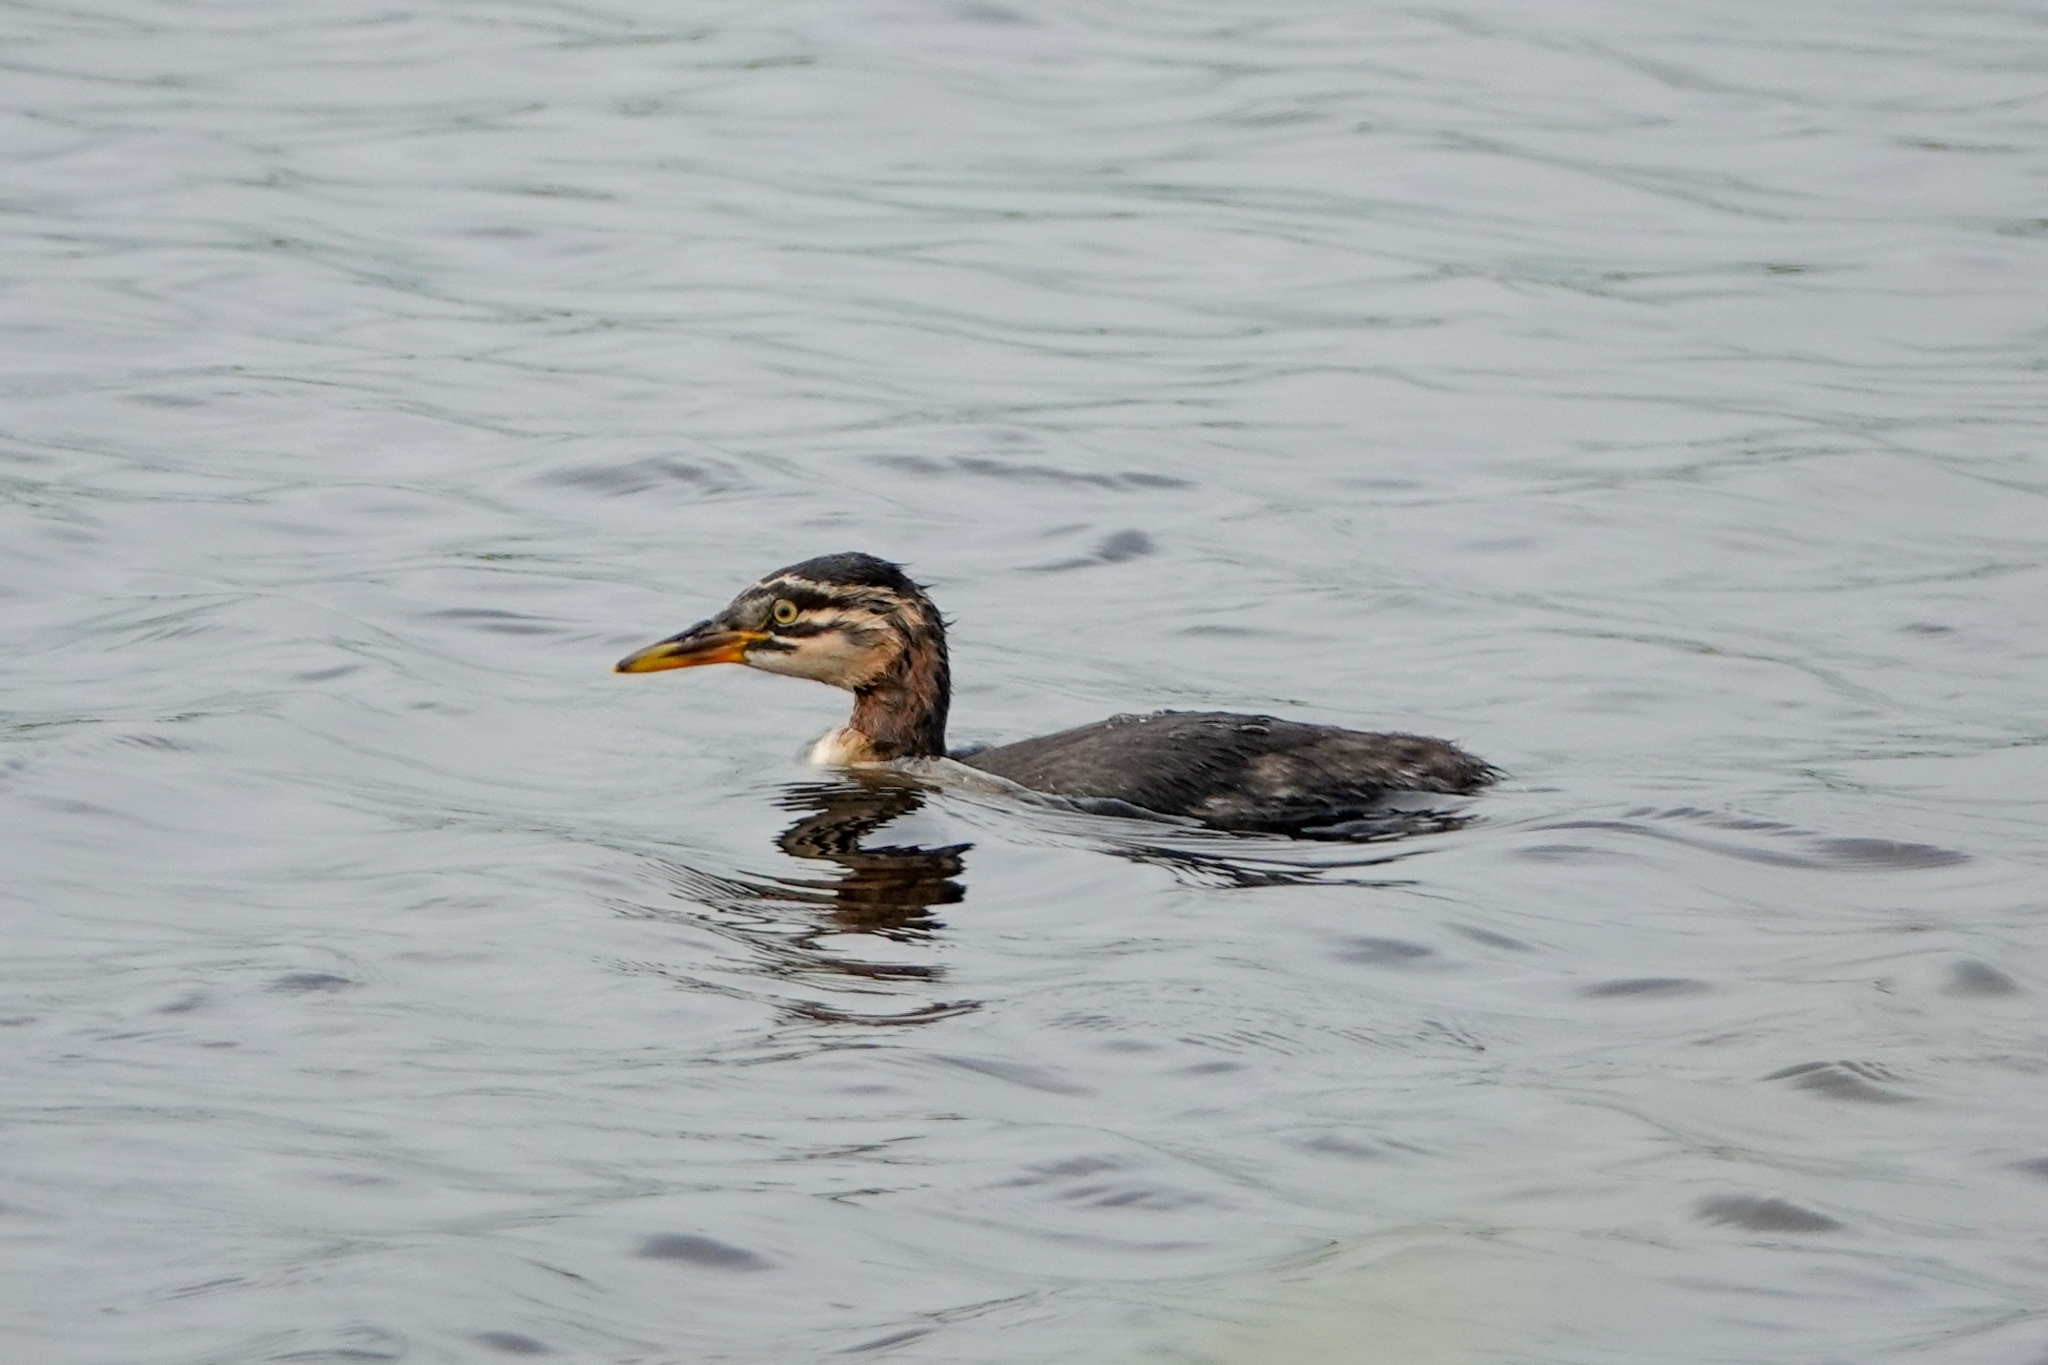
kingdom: Animalia
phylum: Chordata
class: Aves
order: Podicipediformes
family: Podicipedidae
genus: Podiceps
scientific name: Podiceps grisegena
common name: Red-necked grebe
